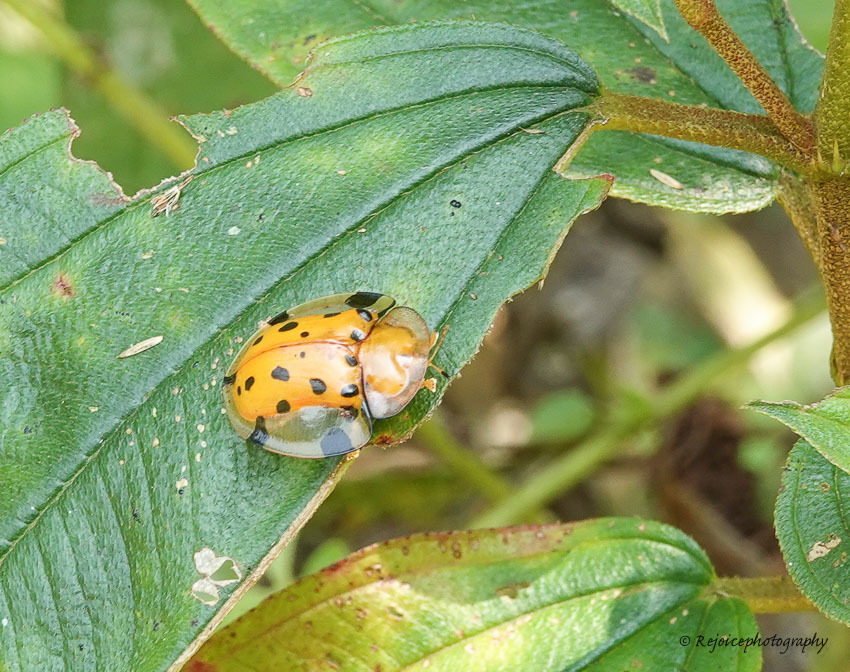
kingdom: Animalia
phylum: Arthropoda
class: Insecta
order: Coleoptera
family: Chrysomelidae
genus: Aspidimorpha
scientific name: Aspidimorpha miliaris
